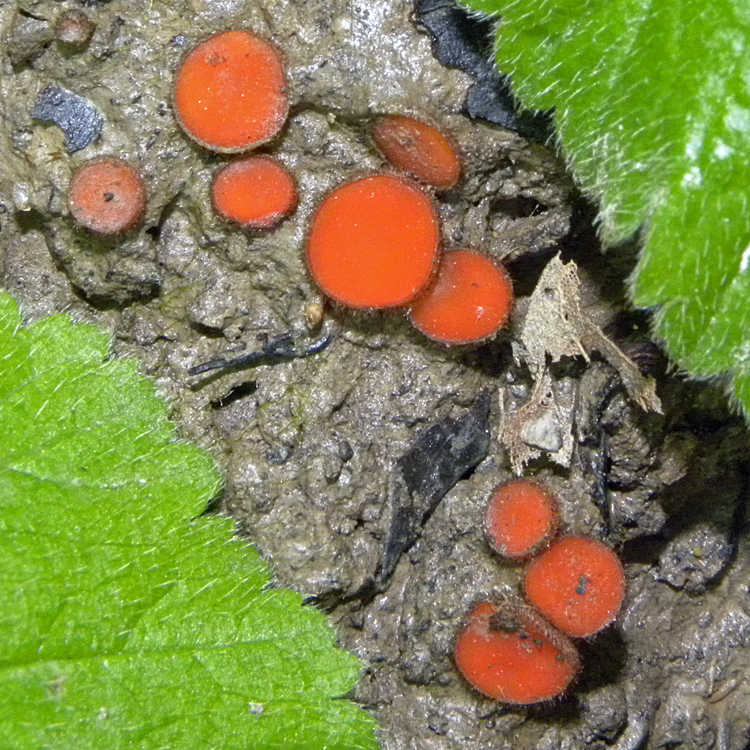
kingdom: Fungi
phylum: Ascomycota
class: Pezizomycetes
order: Pezizales
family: Pyronemataceae
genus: Scutellinia
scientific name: Scutellinia
